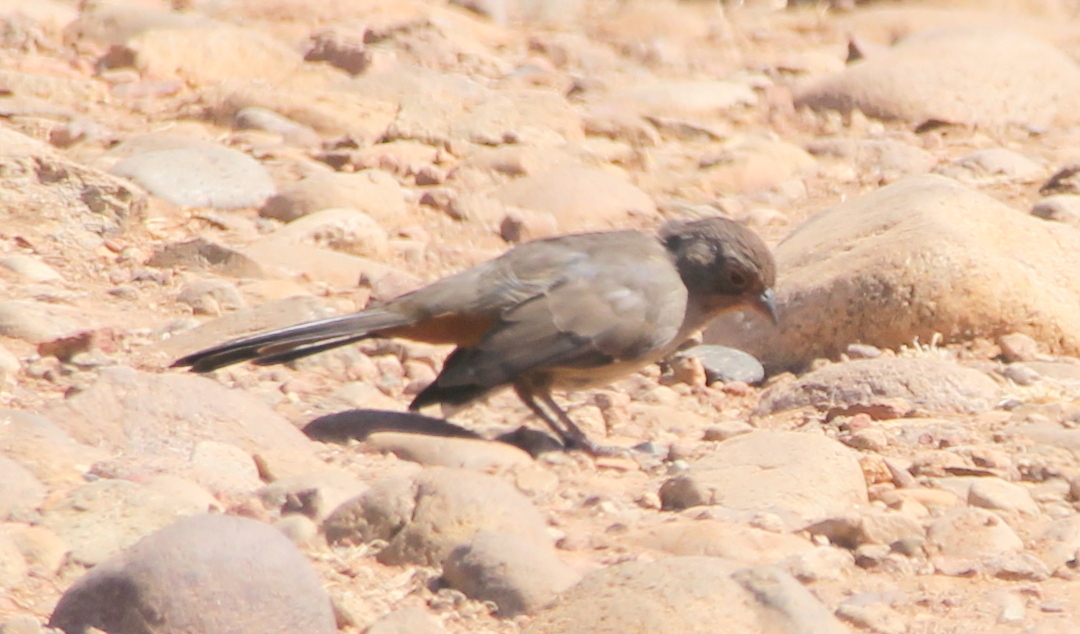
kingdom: Animalia
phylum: Chordata
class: Aves
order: Passeriformes
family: Passerellidae
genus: Melozone
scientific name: Melozone crissalis
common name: California towhee
